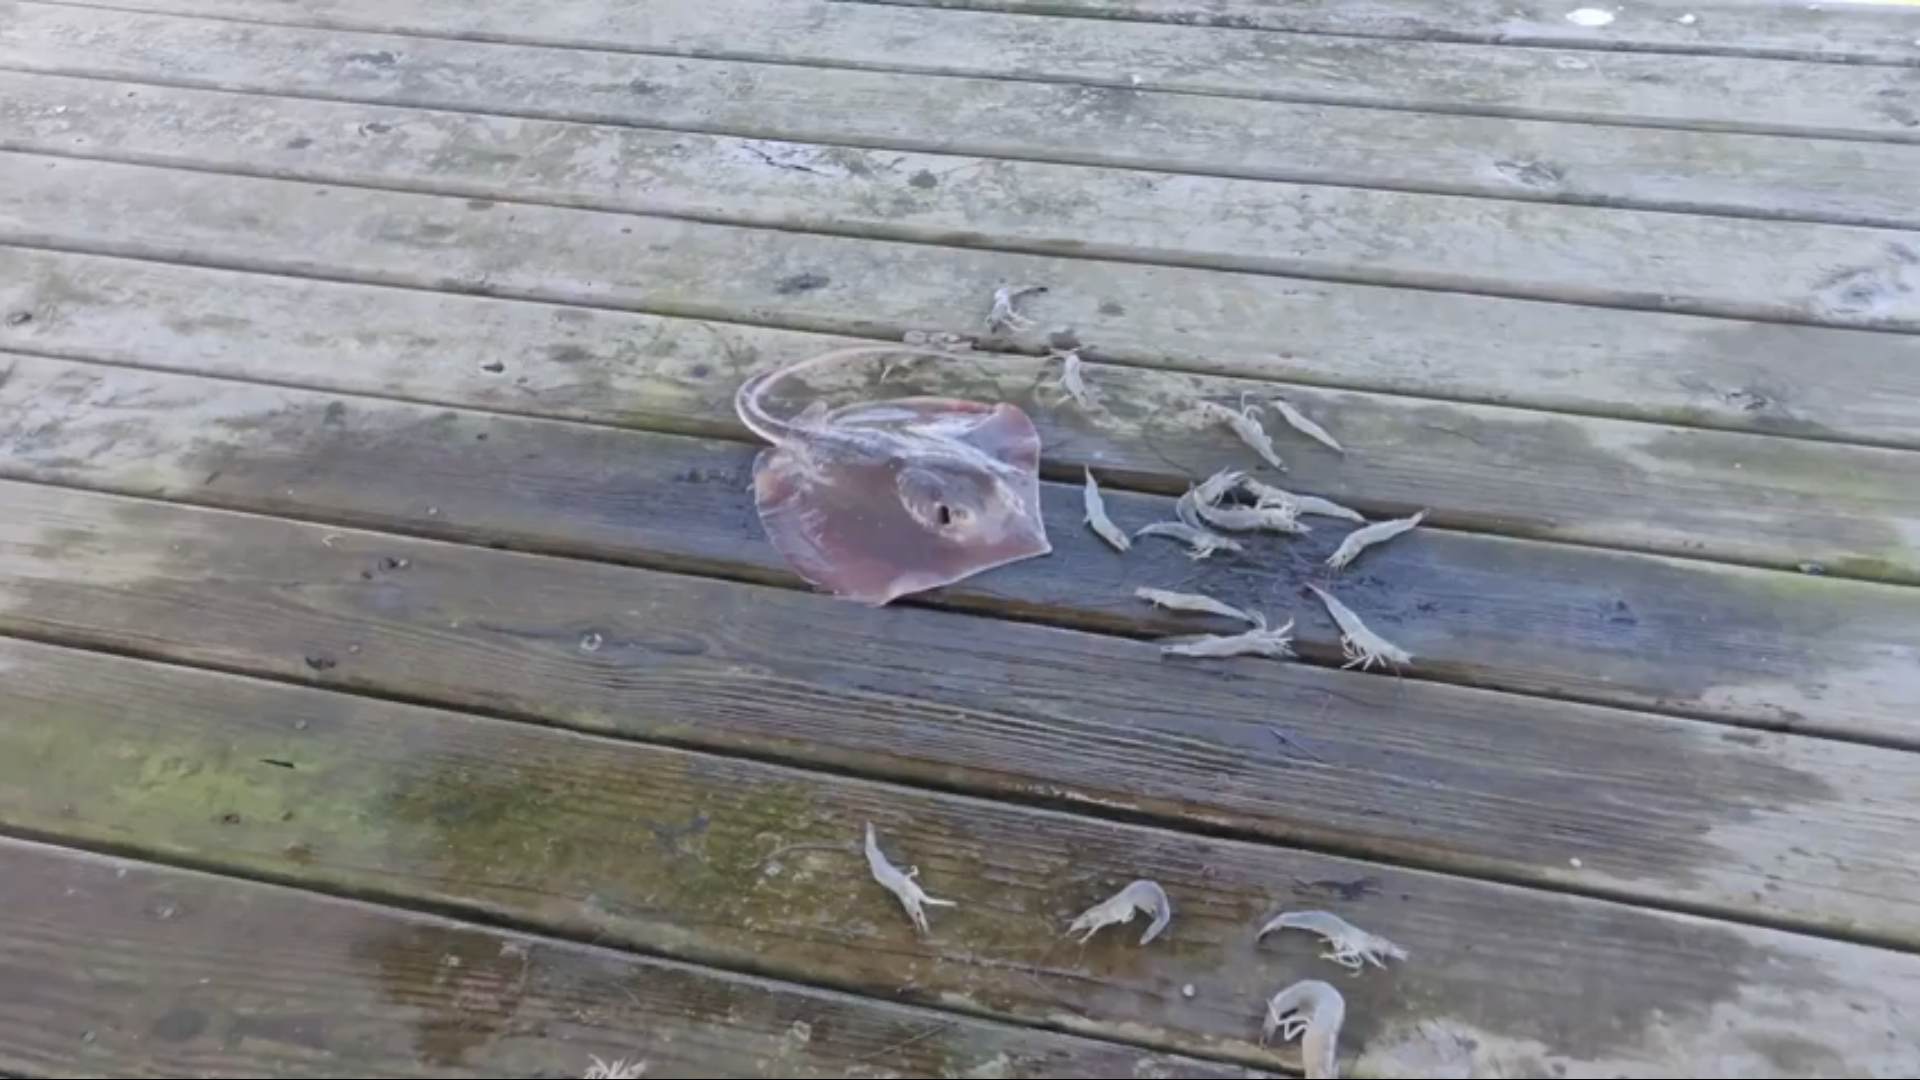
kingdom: Animalia
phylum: Chordata
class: Elasmobranchii
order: Myliobatiformes
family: Dasyatidae
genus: Hypanus
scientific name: Hypanus sabinus
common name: Atlantic stingray
